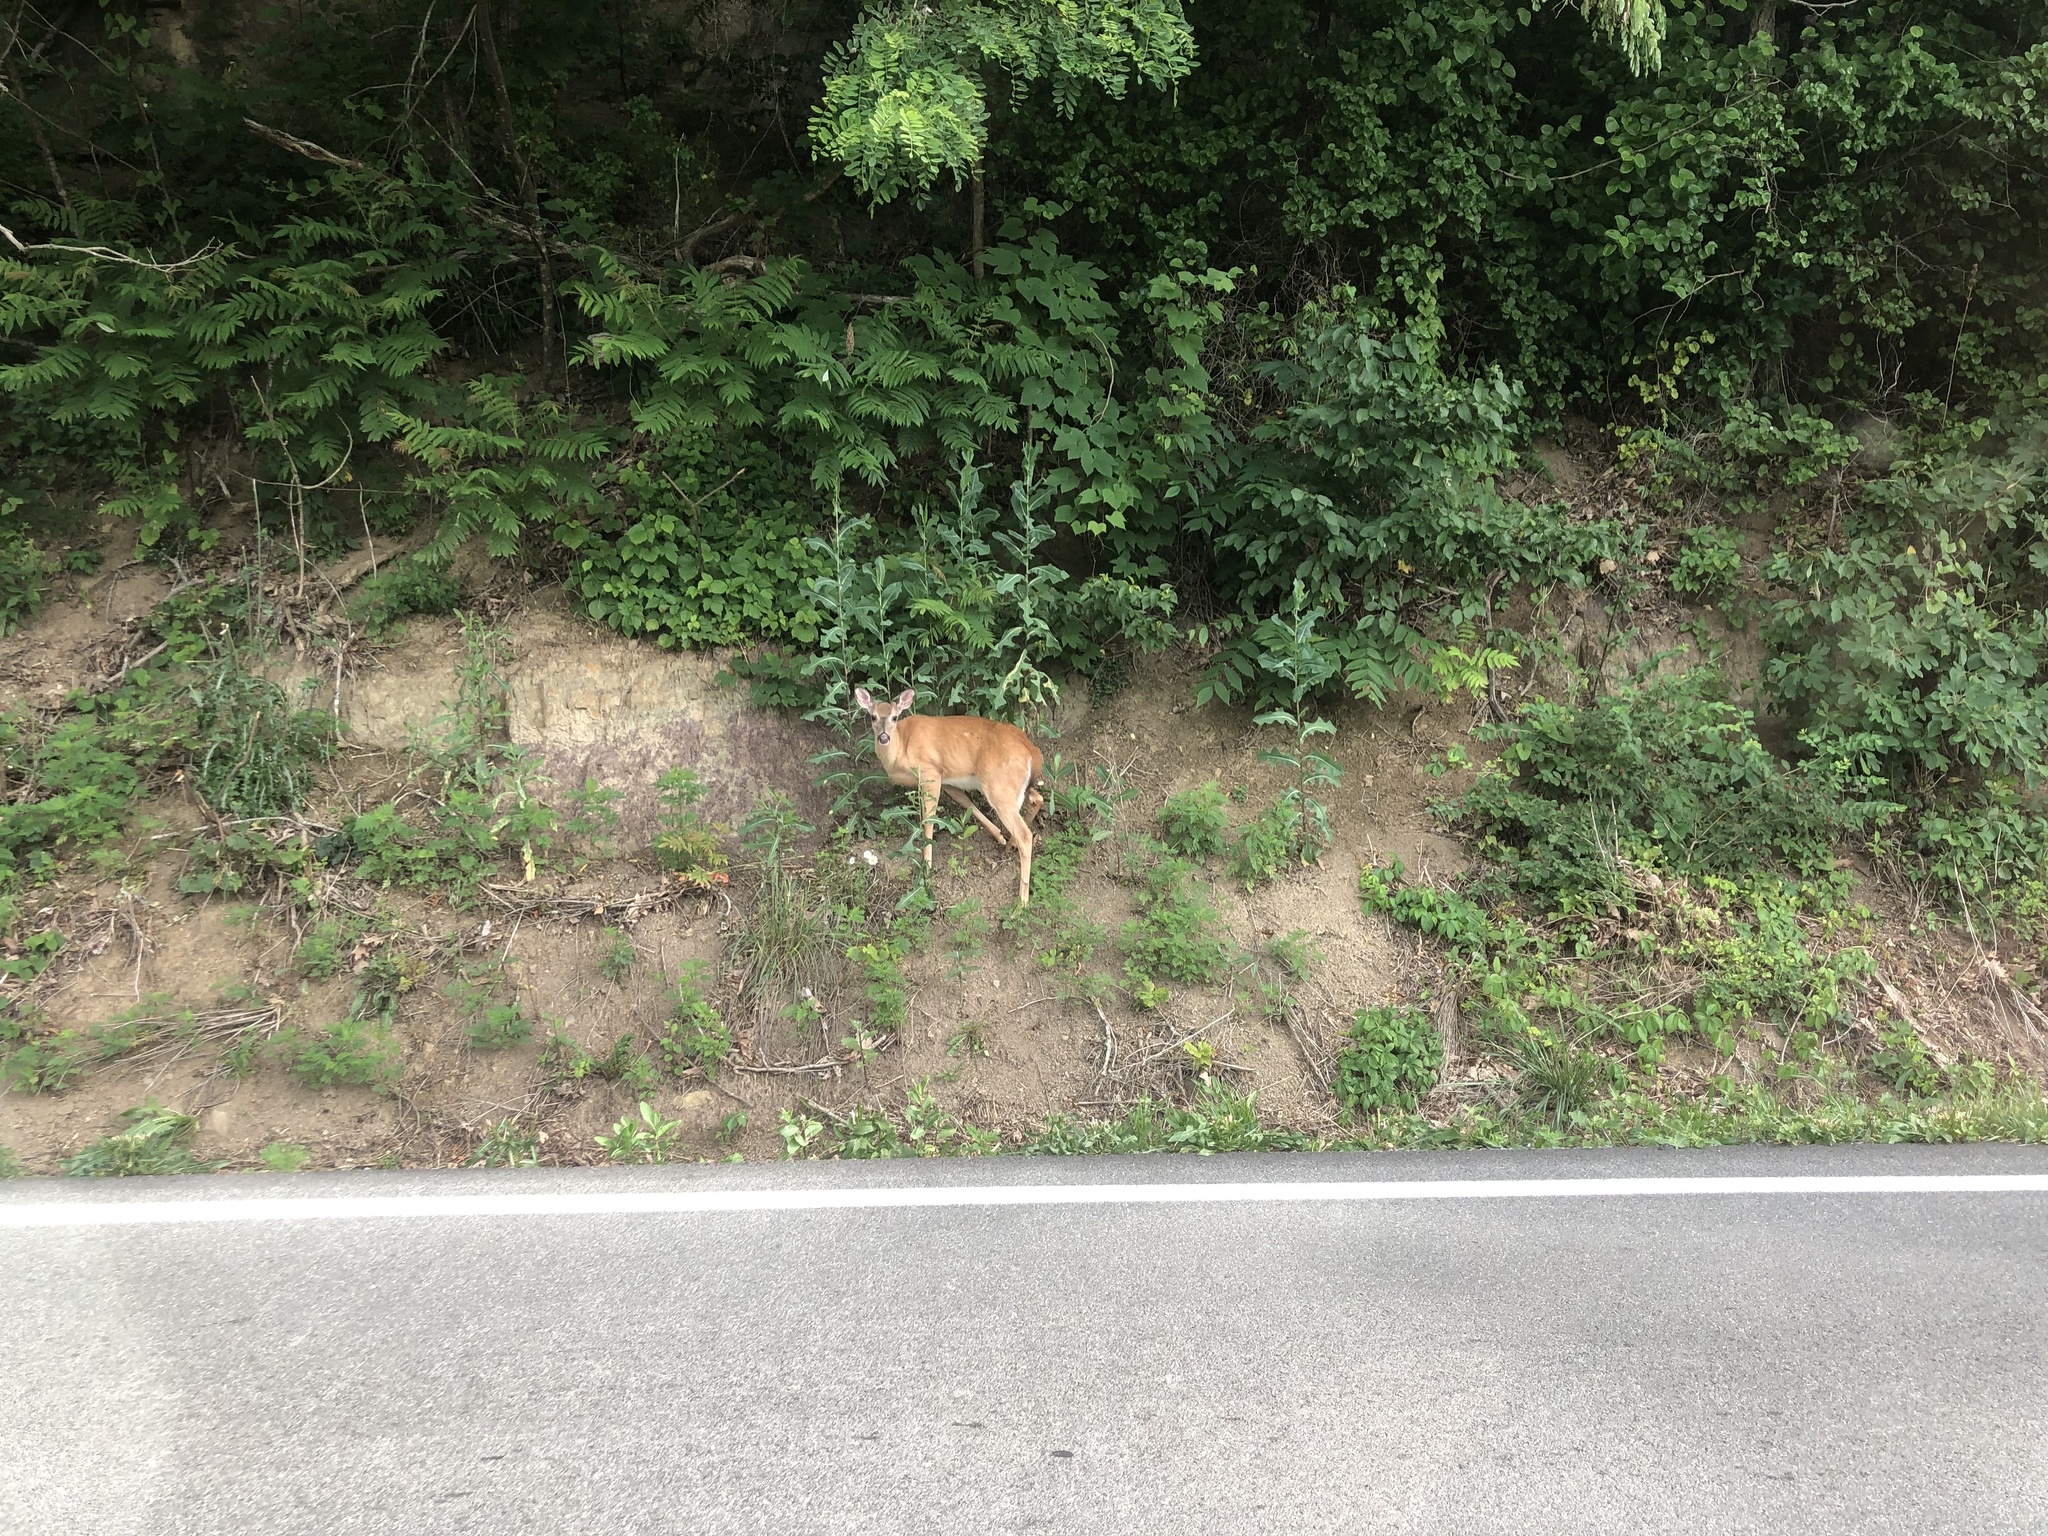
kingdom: Animalia
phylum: Chordata
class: Mammalia
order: Artiodactyla
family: Cervidae
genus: Odocoileus
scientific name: Odocoileus virginianus
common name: White-tailed deer
